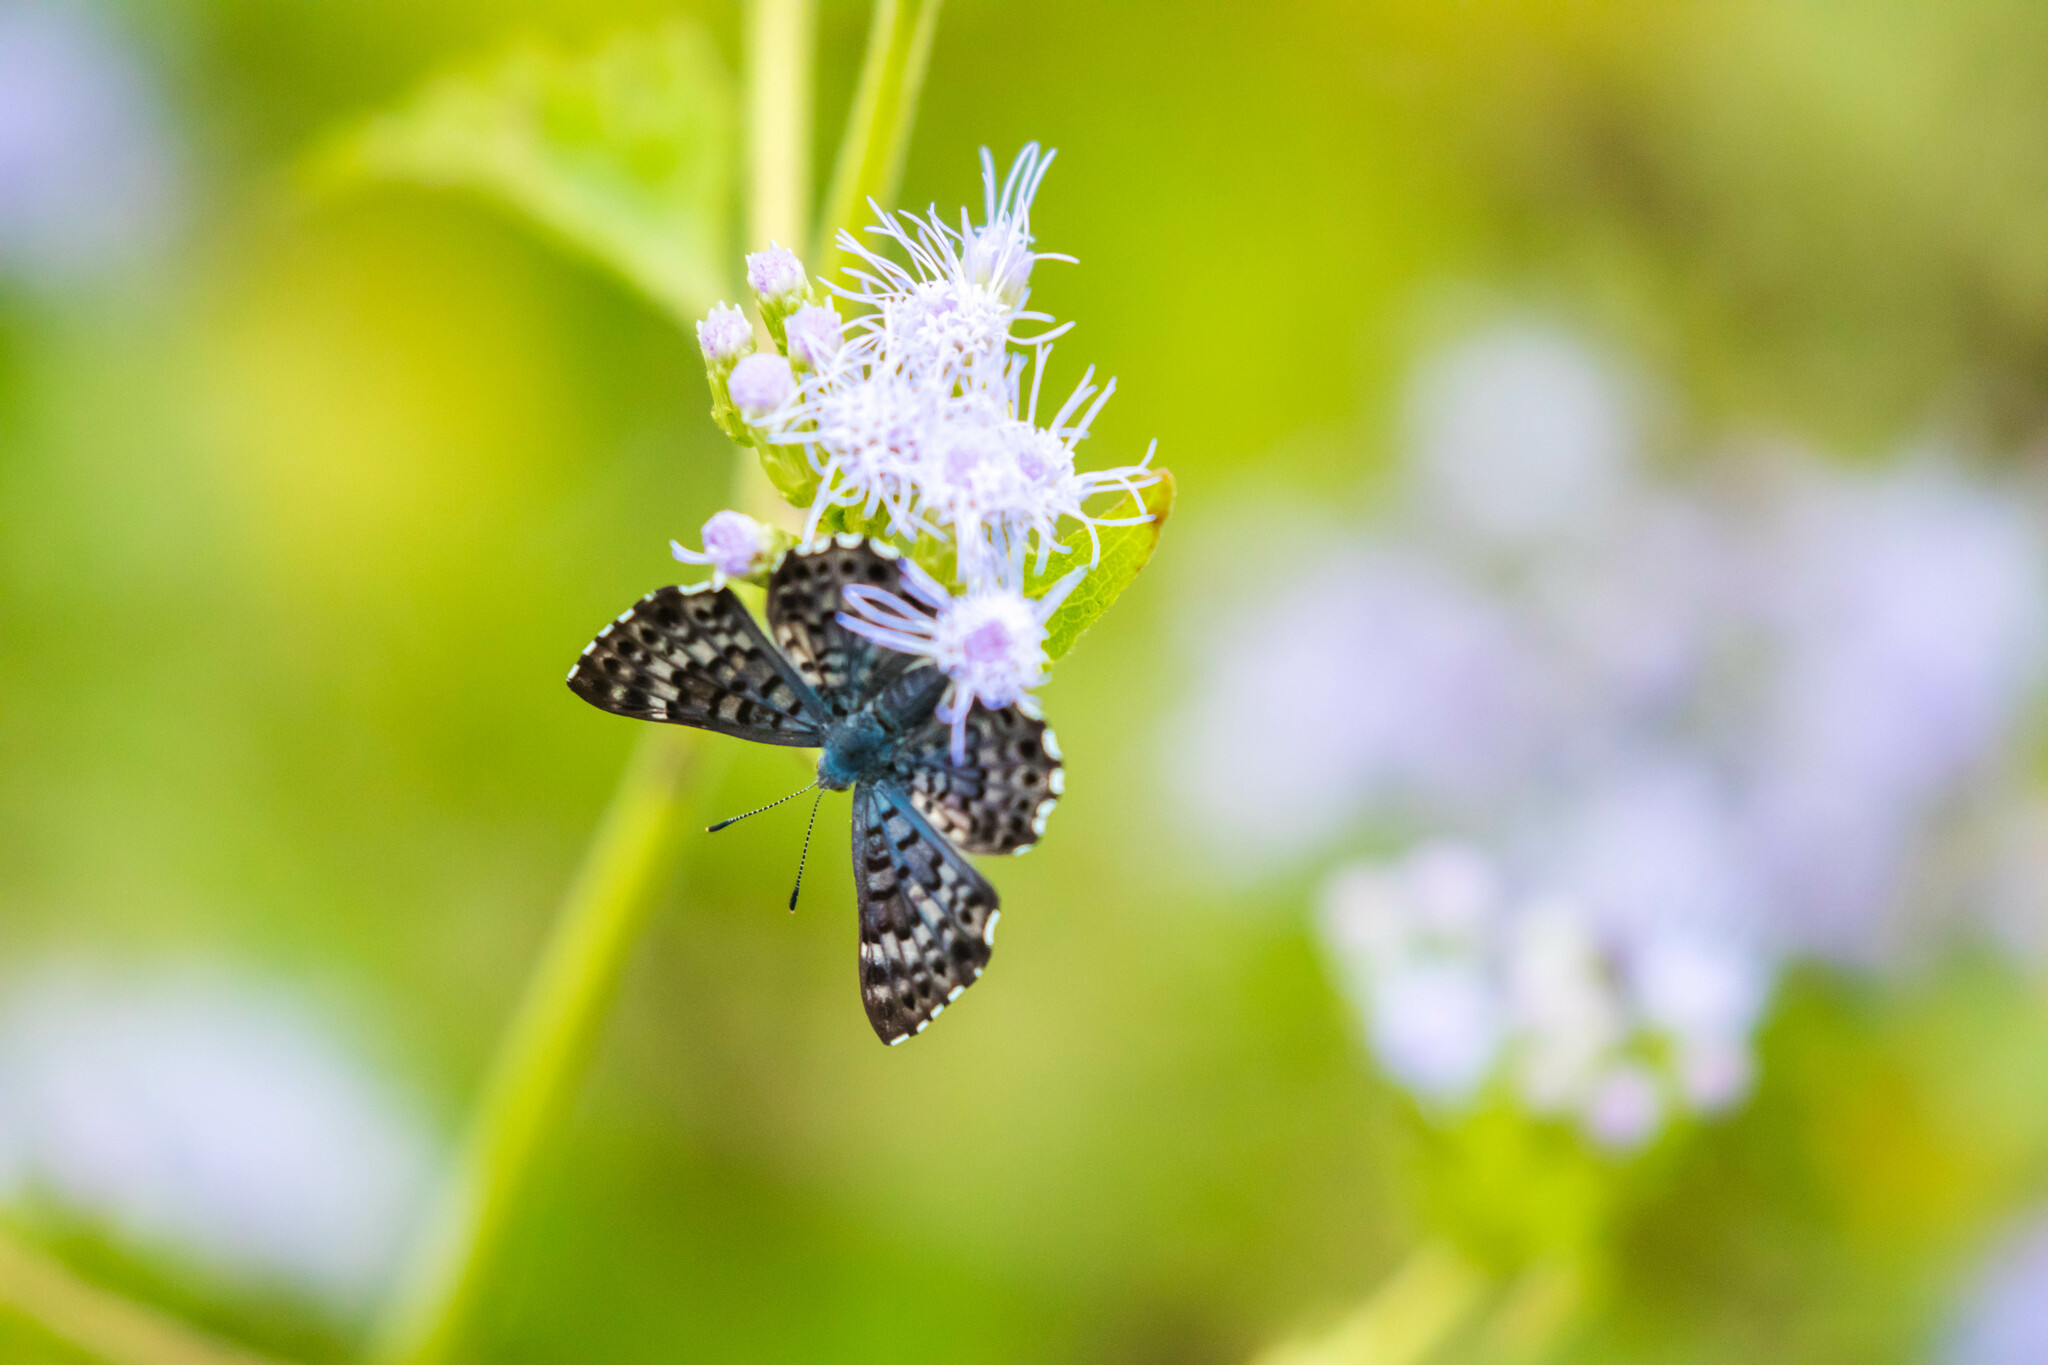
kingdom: Animalia
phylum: Arthropoda
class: Insecta
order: Lepidoptera
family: Riodinidae
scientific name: Riodinidae
